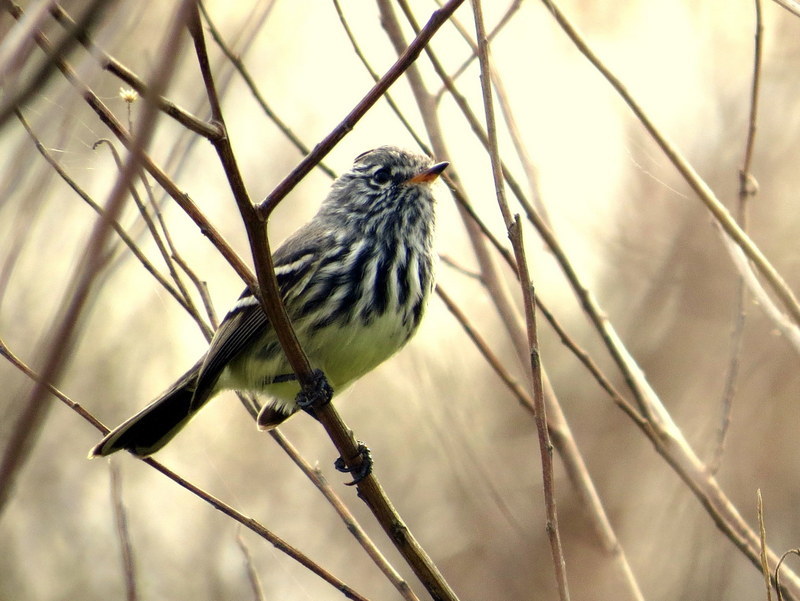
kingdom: Animalia
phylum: Chordata
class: Aves
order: Passeriformes
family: Tyrannidae
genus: Anairetes
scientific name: Anairetes flavirostris
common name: Yellow-billed tit-tyrant
